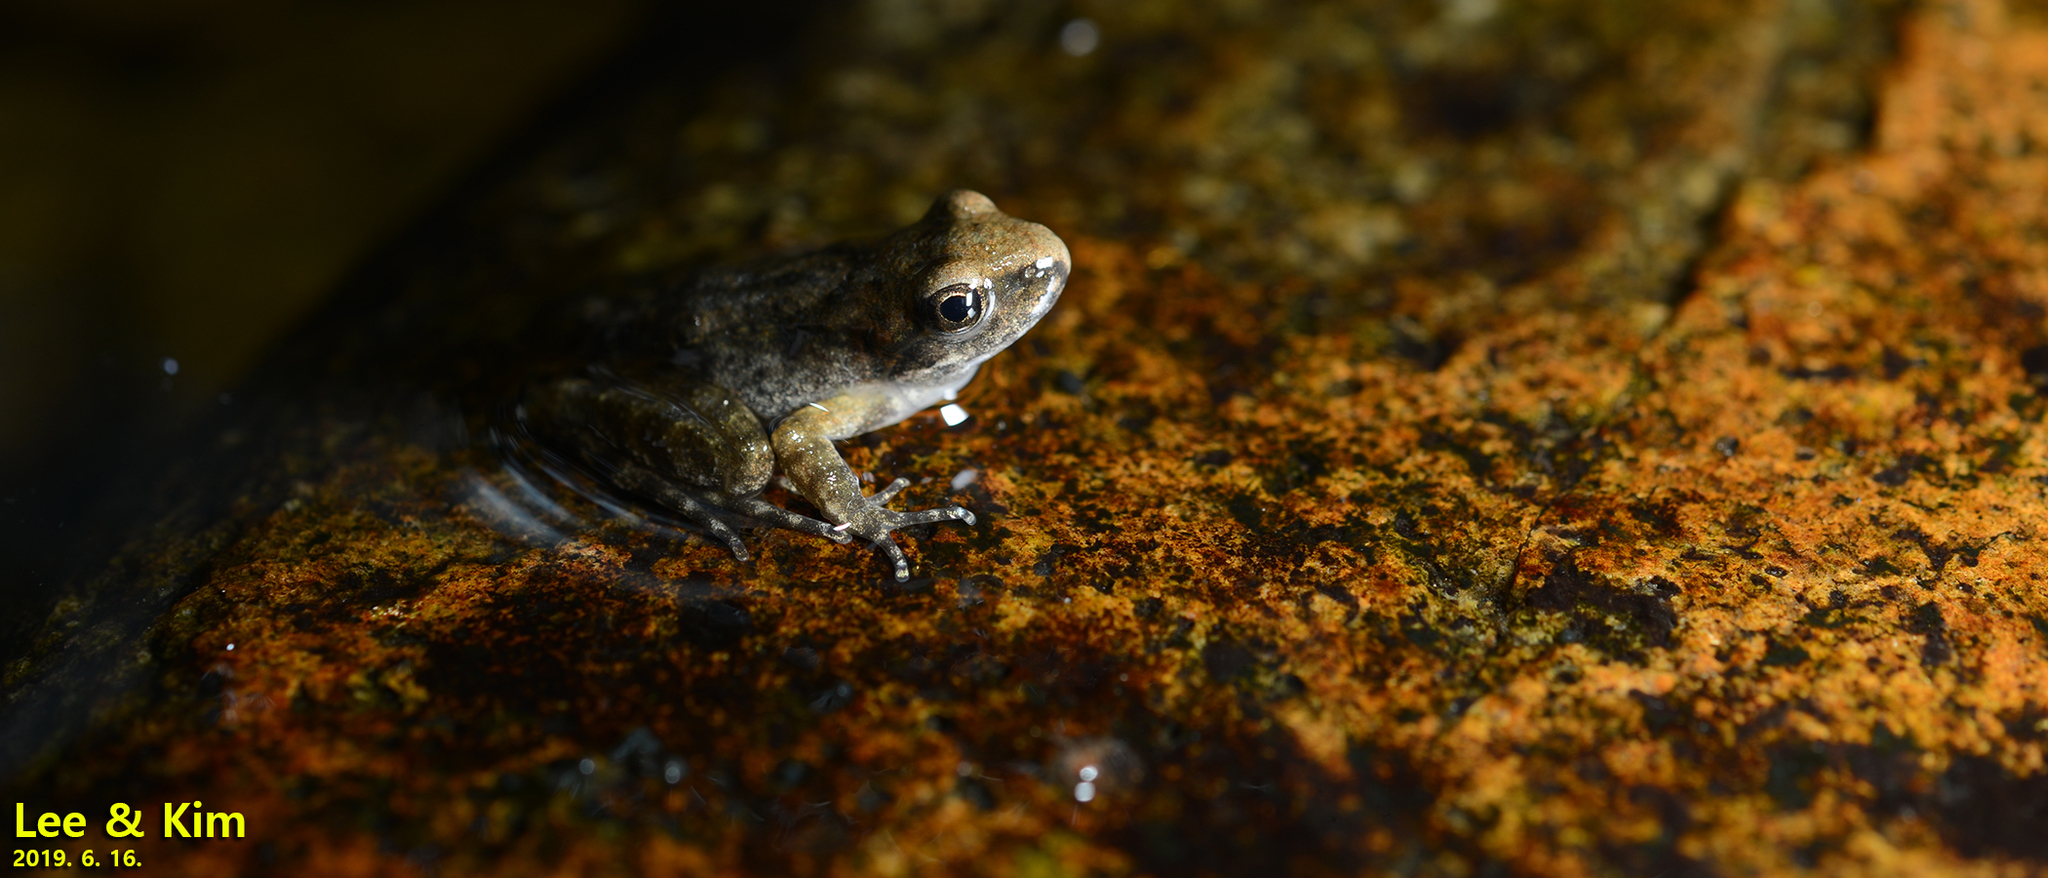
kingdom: Animalia
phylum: Chordata
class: Amphibia
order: Anura
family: Ranidae
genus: Rana
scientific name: Rana huanrenensis
